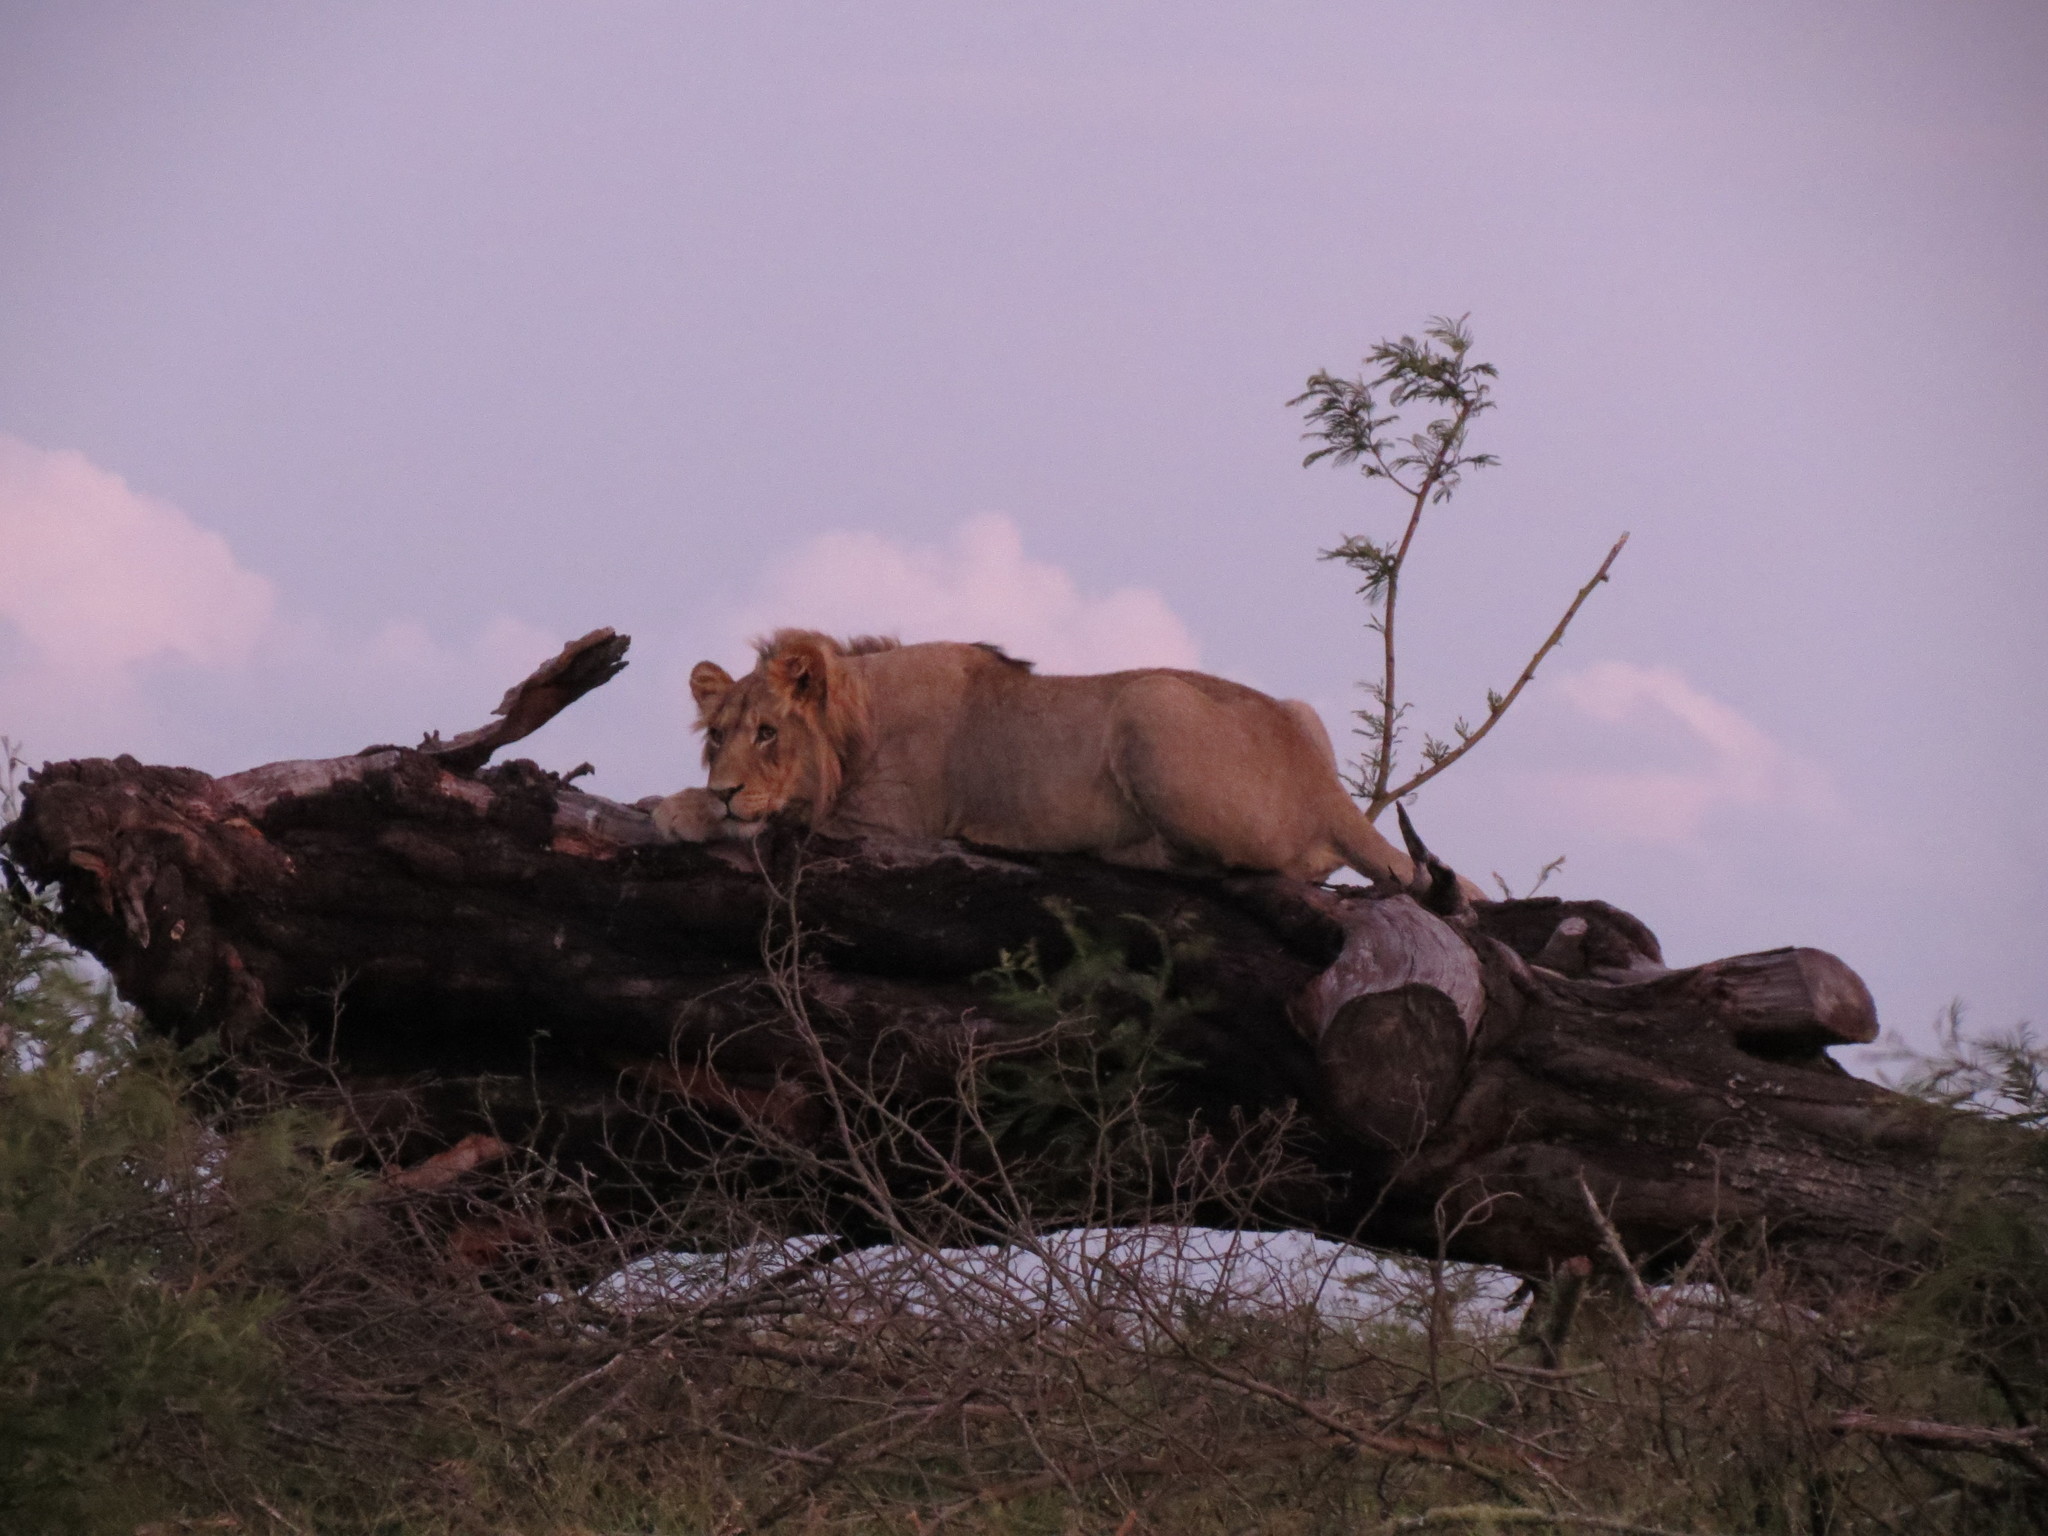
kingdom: Animalia
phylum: Chordata
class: Mammalia
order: Carnivora
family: Felidae
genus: Panthera
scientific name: Panthera leo
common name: Lion
